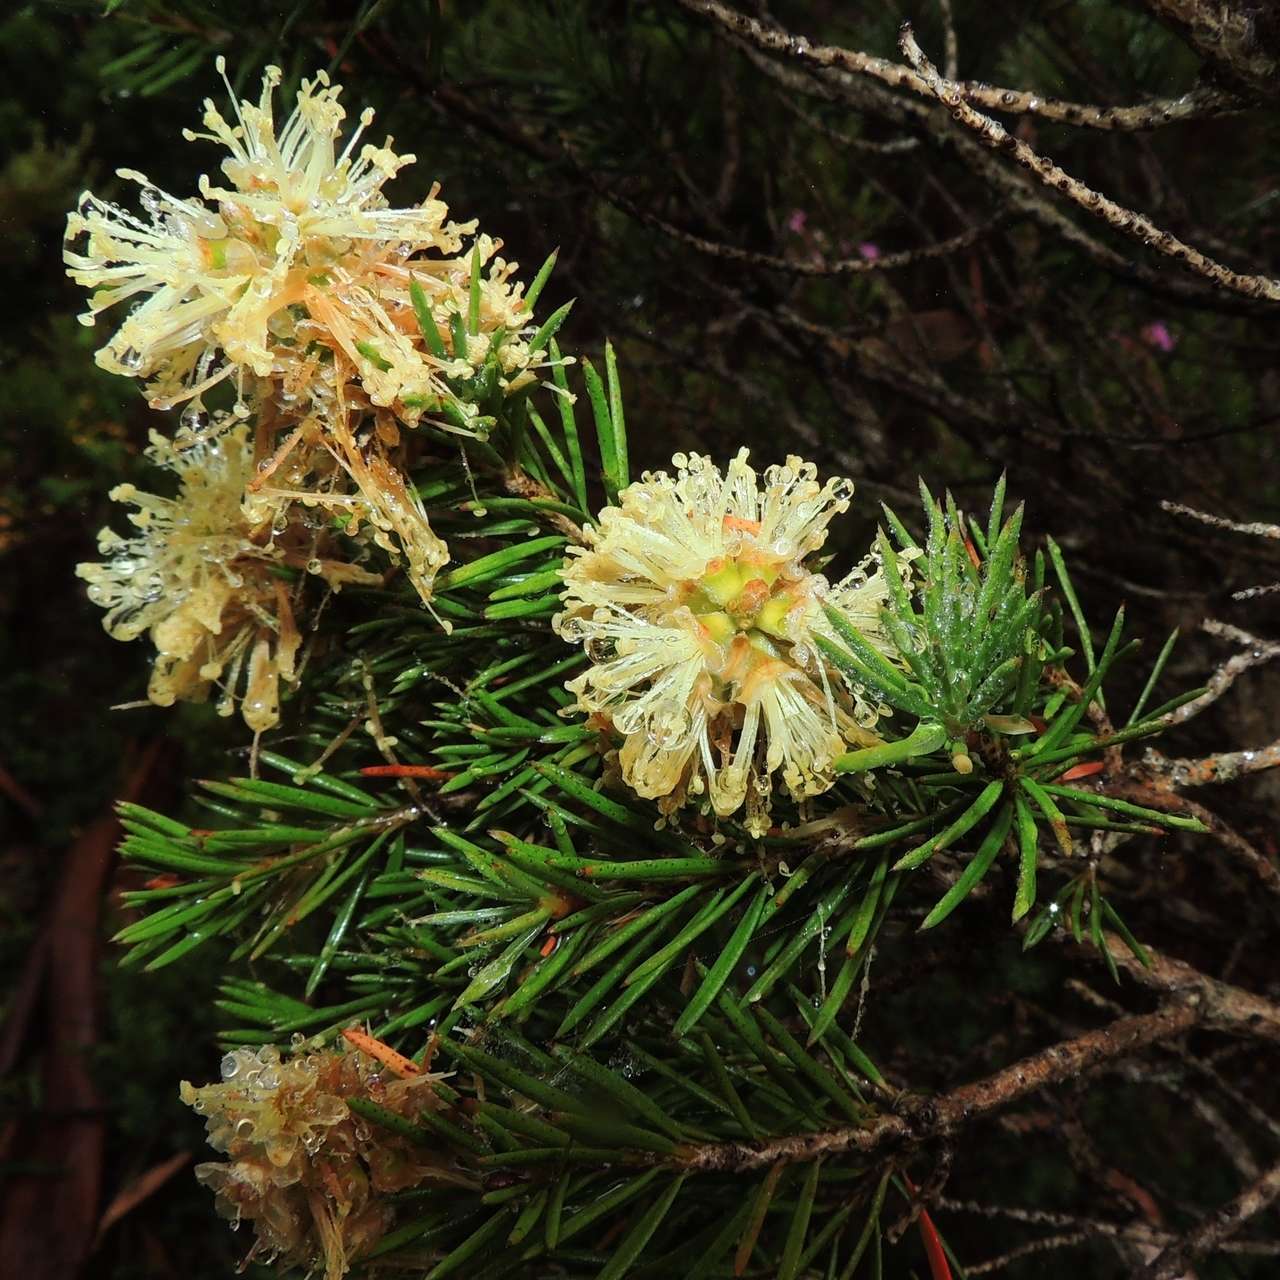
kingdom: Plantae
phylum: Tracheophyta
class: Magnoliopsida
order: Myrtales
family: Myrtaceae
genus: Callistemon
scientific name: Callistemon pityoides
